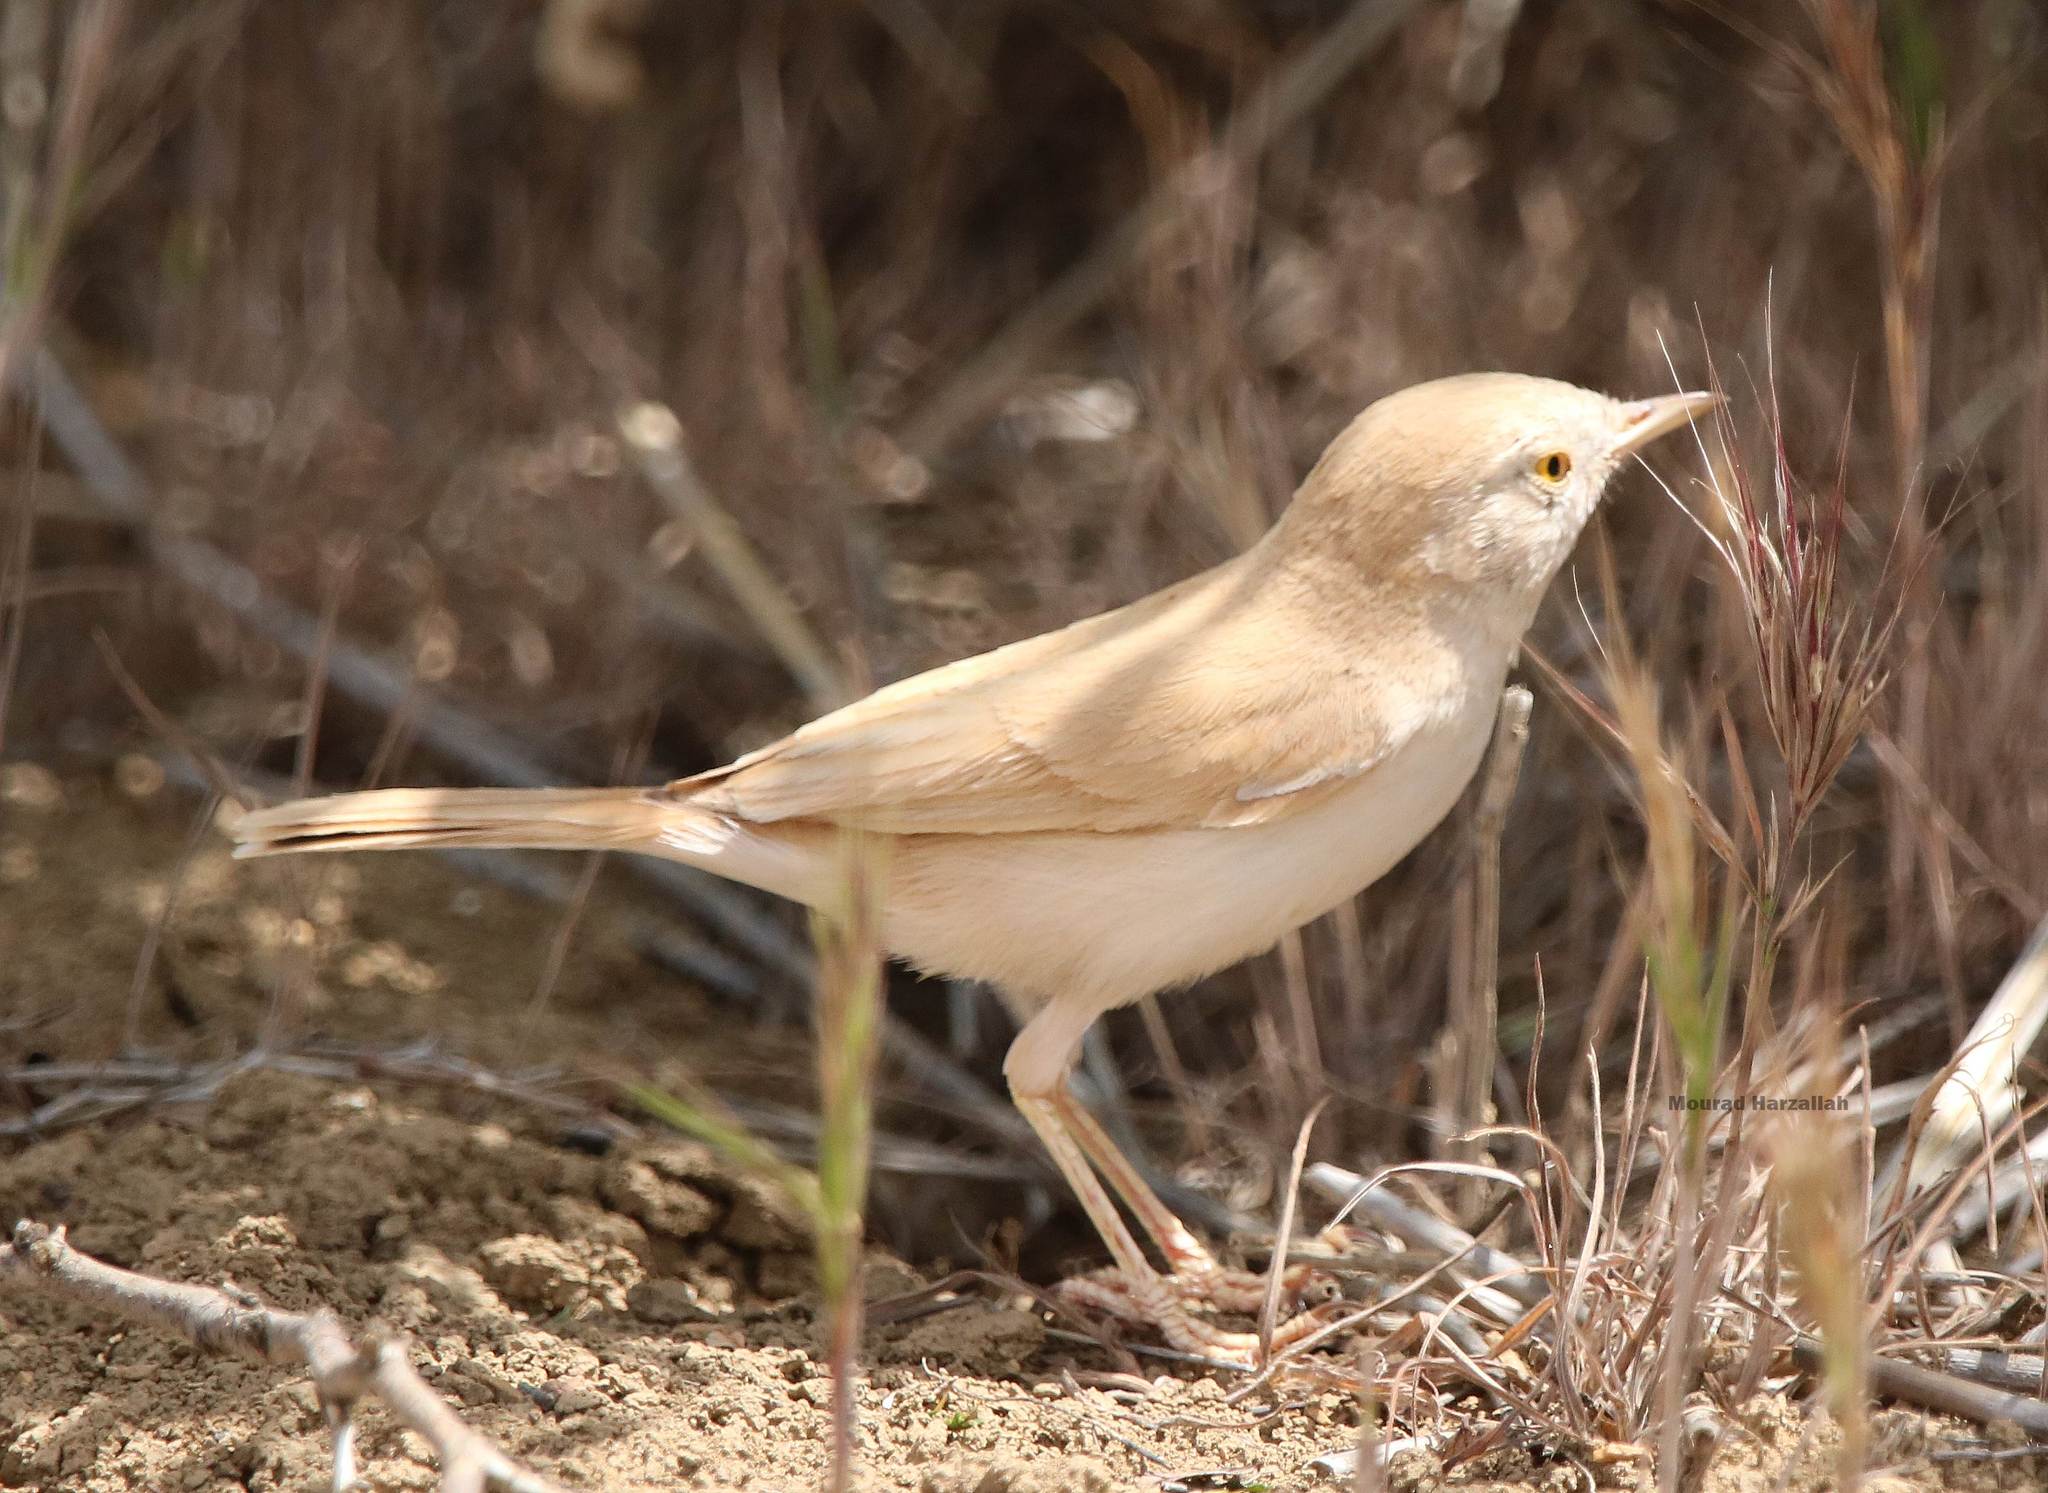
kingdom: Animalia
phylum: Chordata
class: Aves
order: Passeriformes
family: Sylviidae
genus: Sylvia
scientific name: Sylvia deserti
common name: African desert warbler
